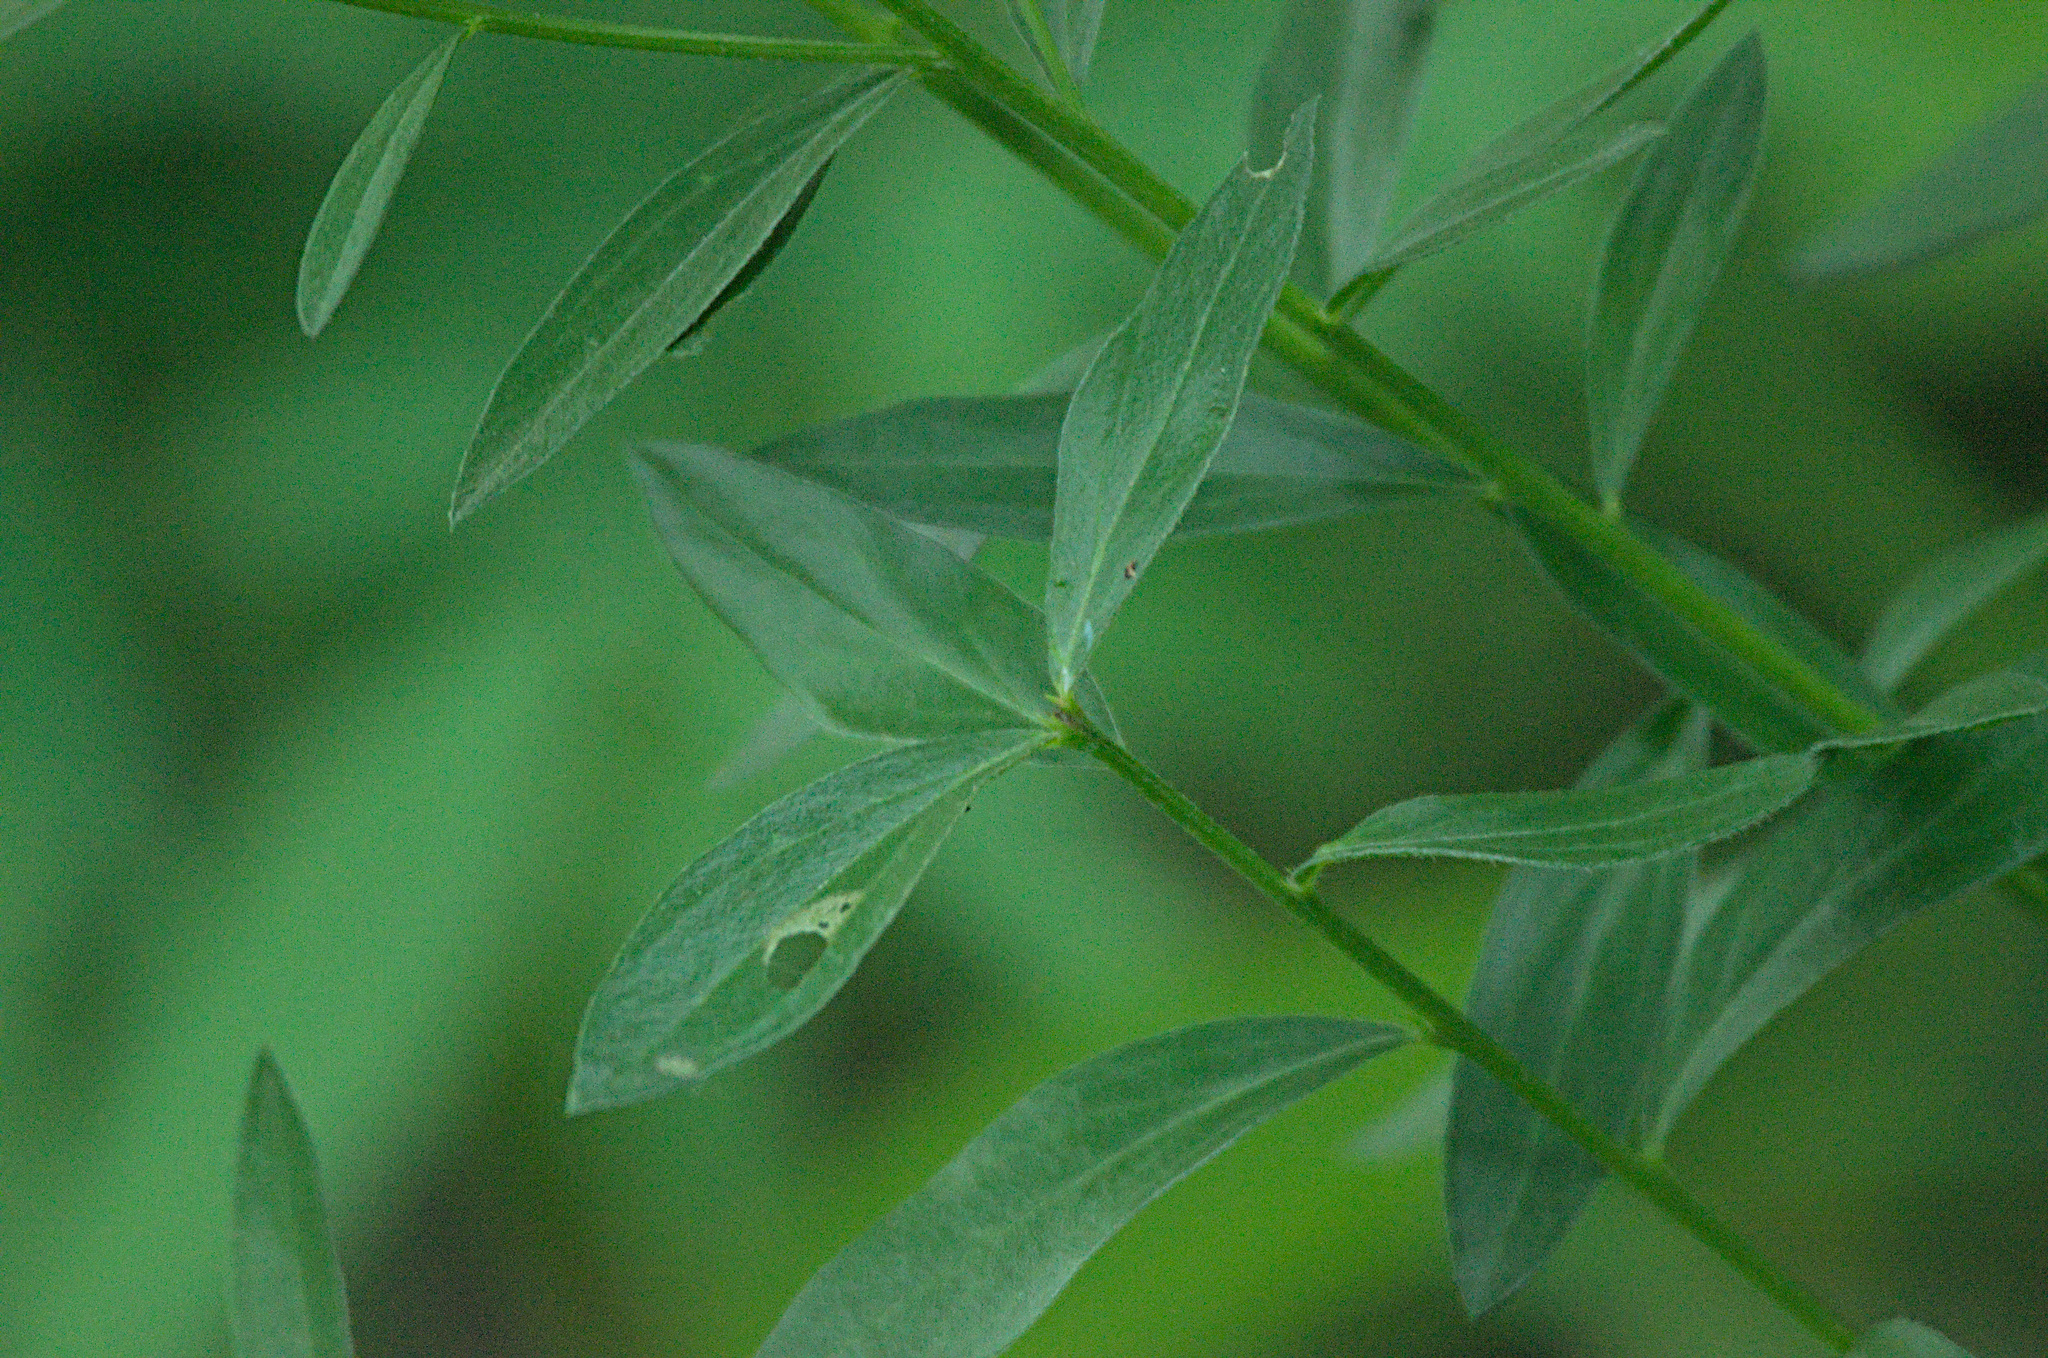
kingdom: Plantae
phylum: Tracheophyta
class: Magnoliopsida
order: Fabales
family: Fabaceae
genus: Genista
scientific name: Genista tinctoria
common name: Dyer's greenweed
